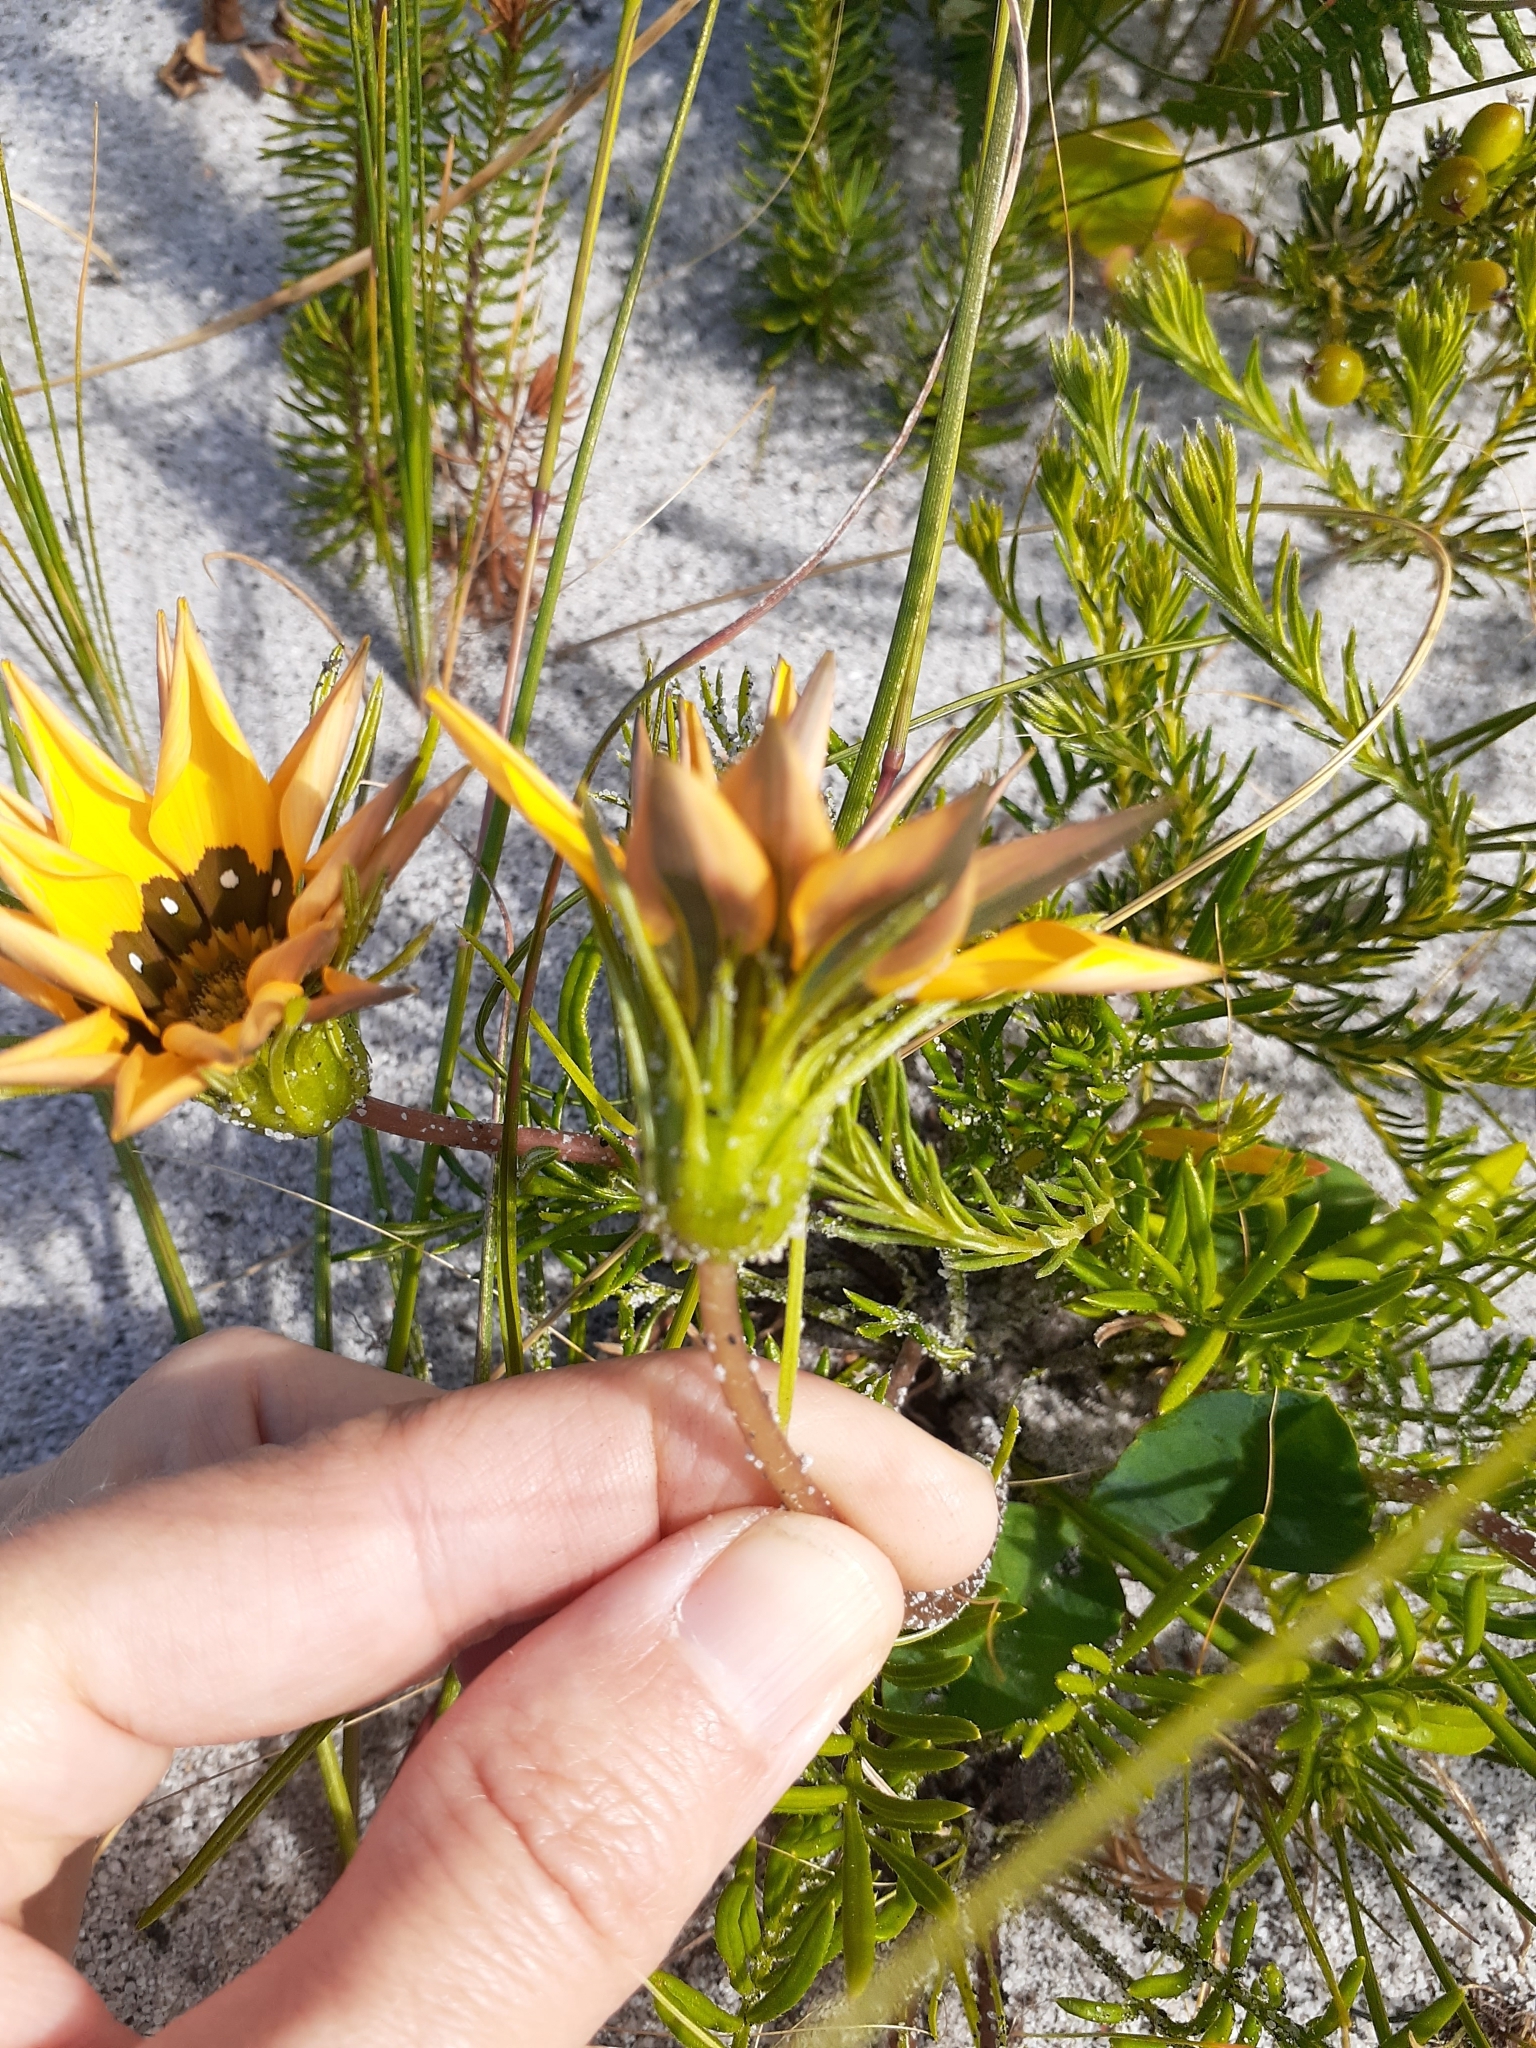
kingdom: Plantae
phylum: Tracheophyta
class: Magnoliopsida
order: Asterales
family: Asteraceae
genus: Gazania
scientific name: Gazania pectinata
